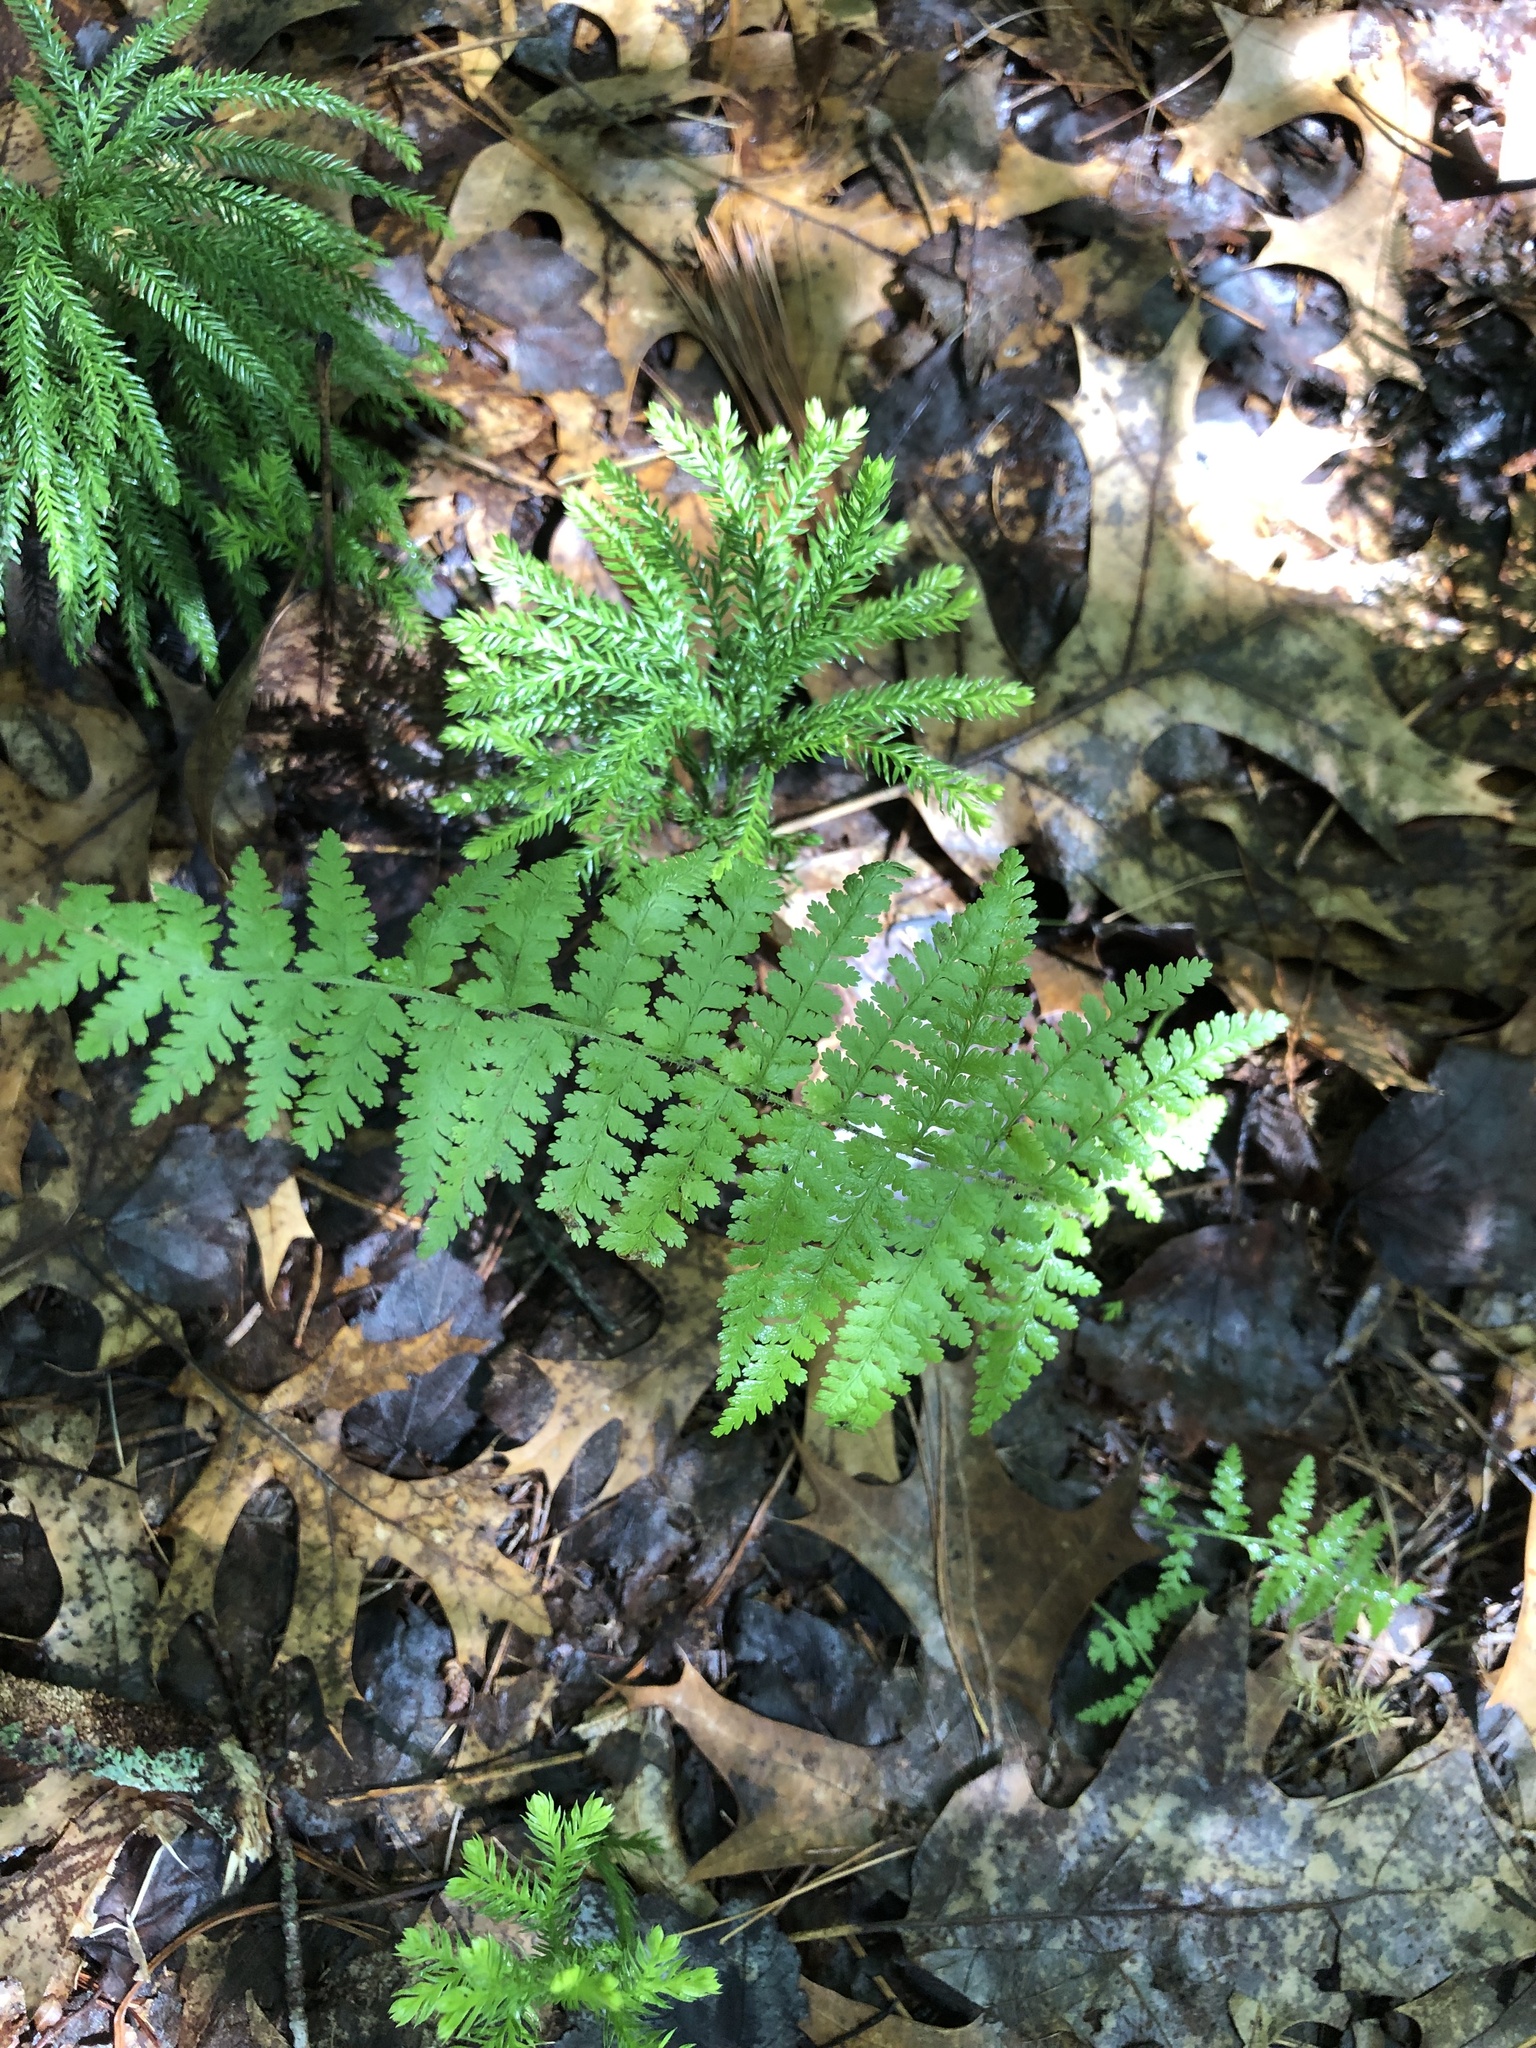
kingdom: Plantae
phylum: Tracheophyta
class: Polypodiopsida
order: Polypodiales
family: Dennstaedtiaceae
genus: Sitobolium
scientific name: Sitobolium punctilobum
